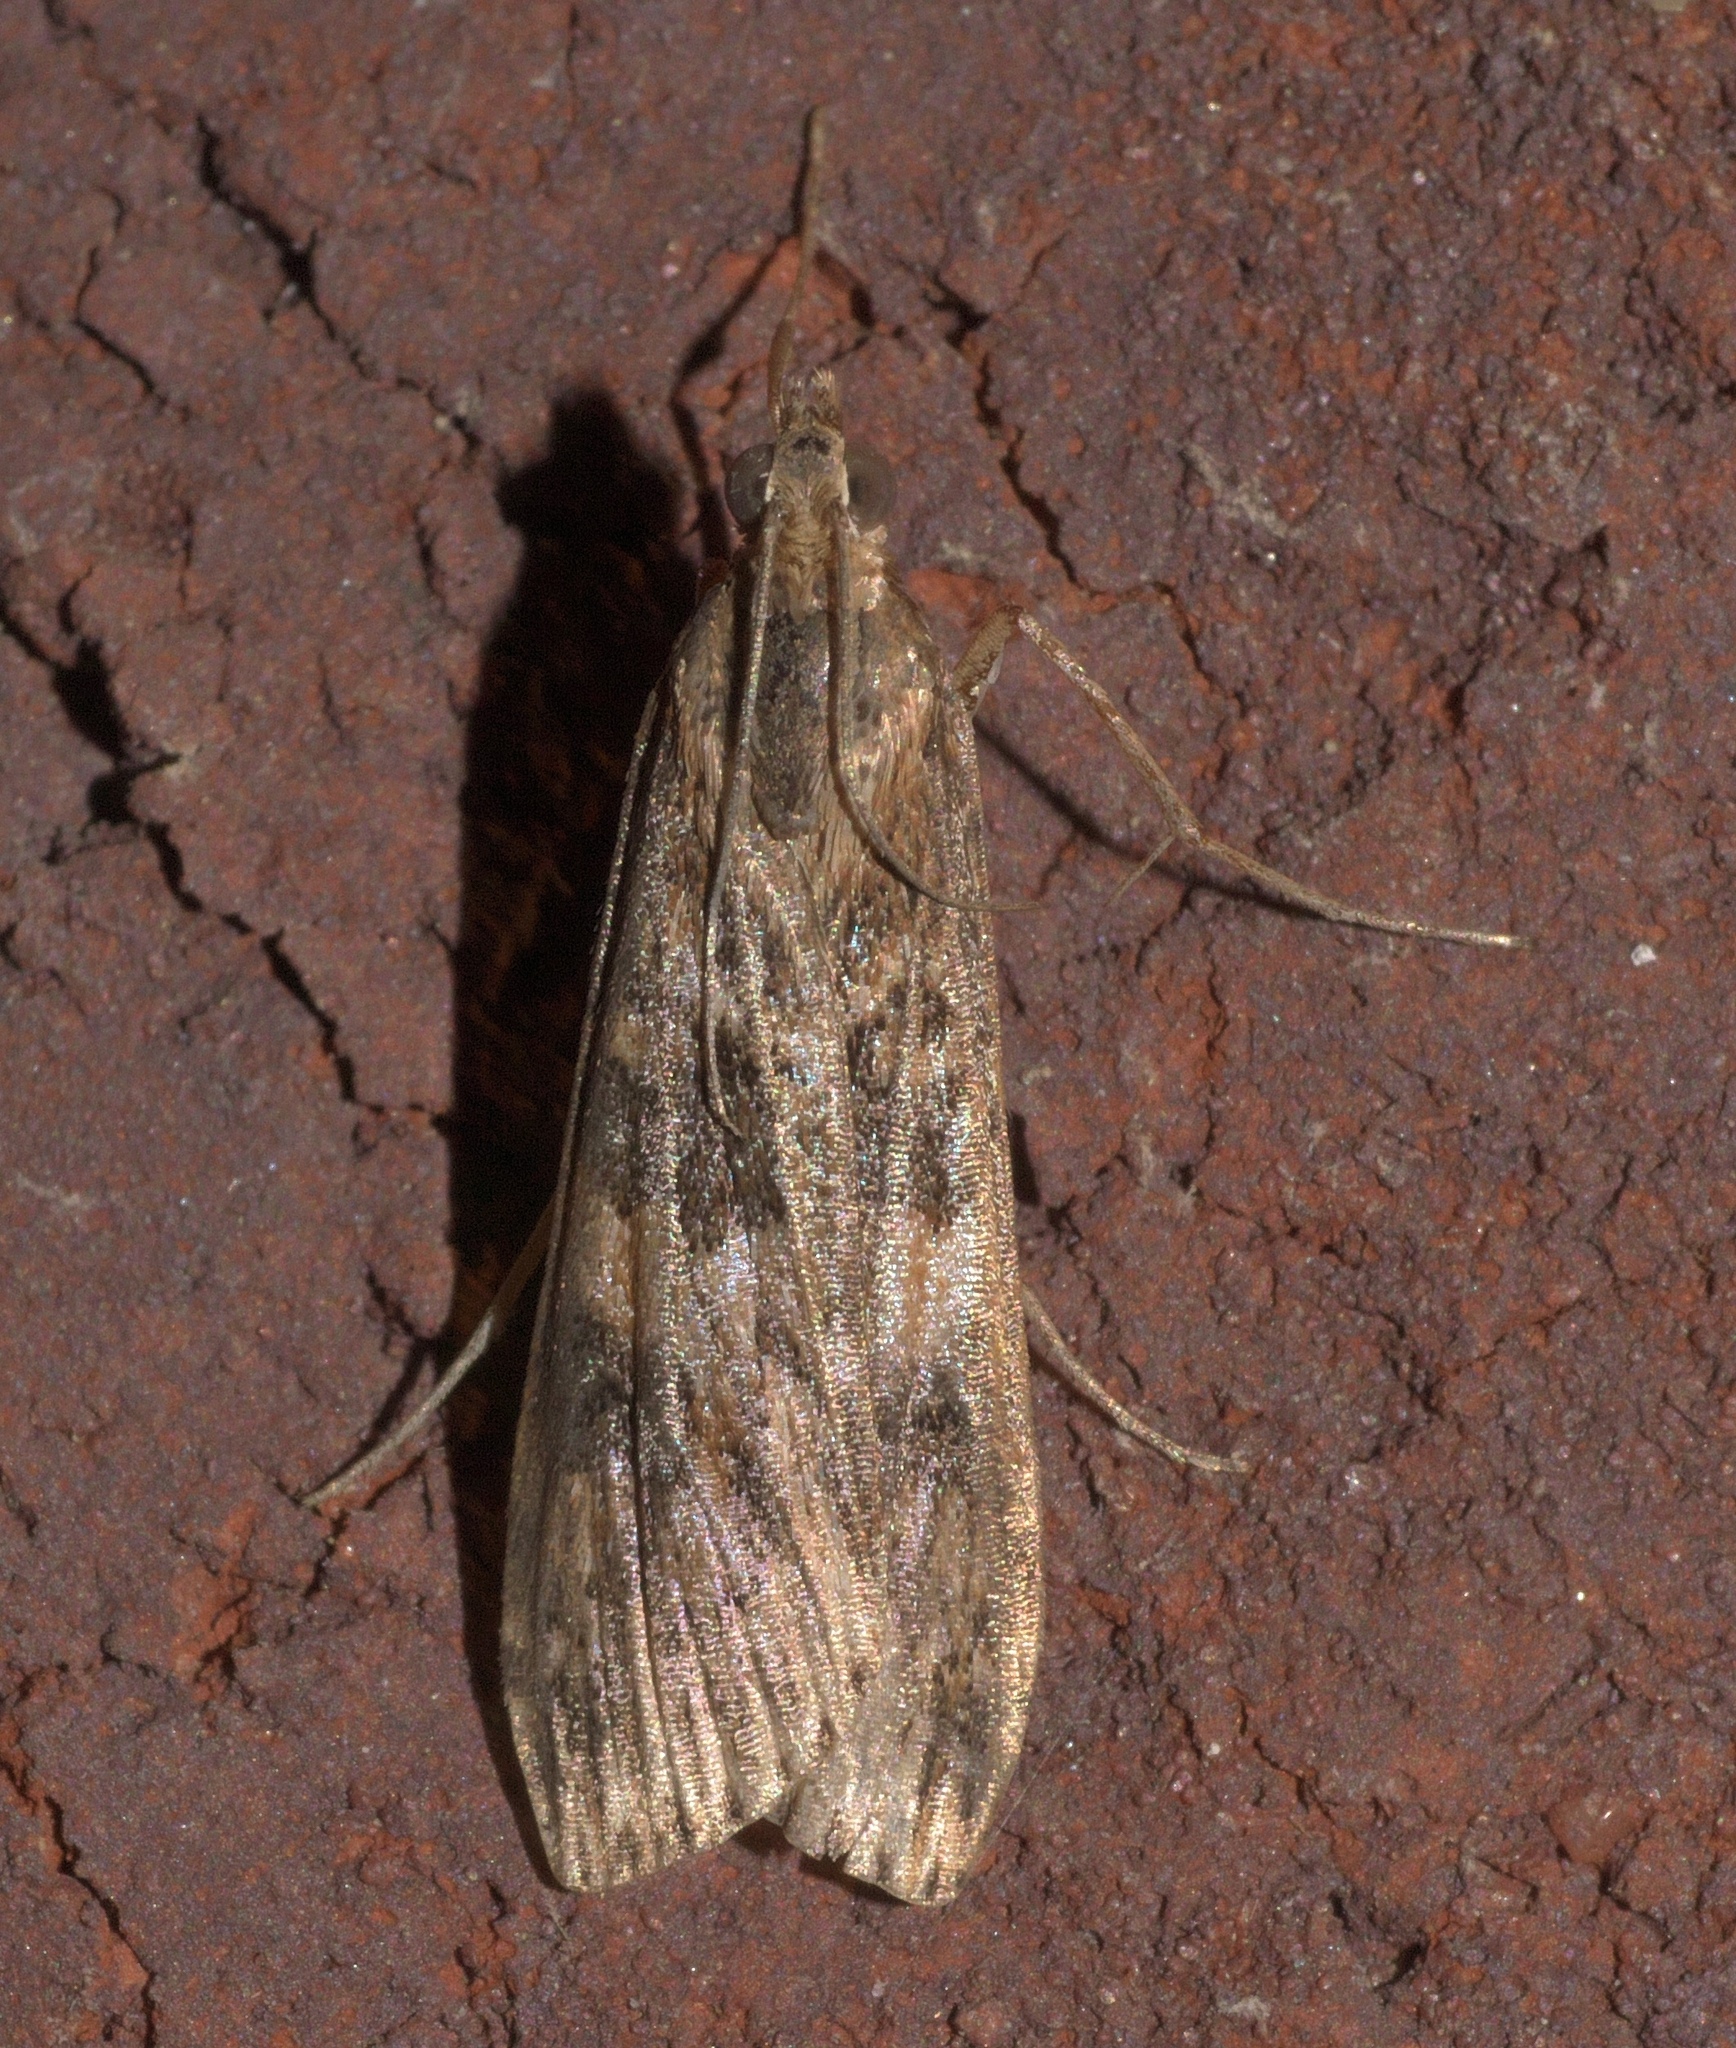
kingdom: Animalia
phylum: Arthropoda
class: Insecta
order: Lepidoptera
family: Crambidae
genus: Nomophila
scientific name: Nomophila nearctica
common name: American rush veneer
